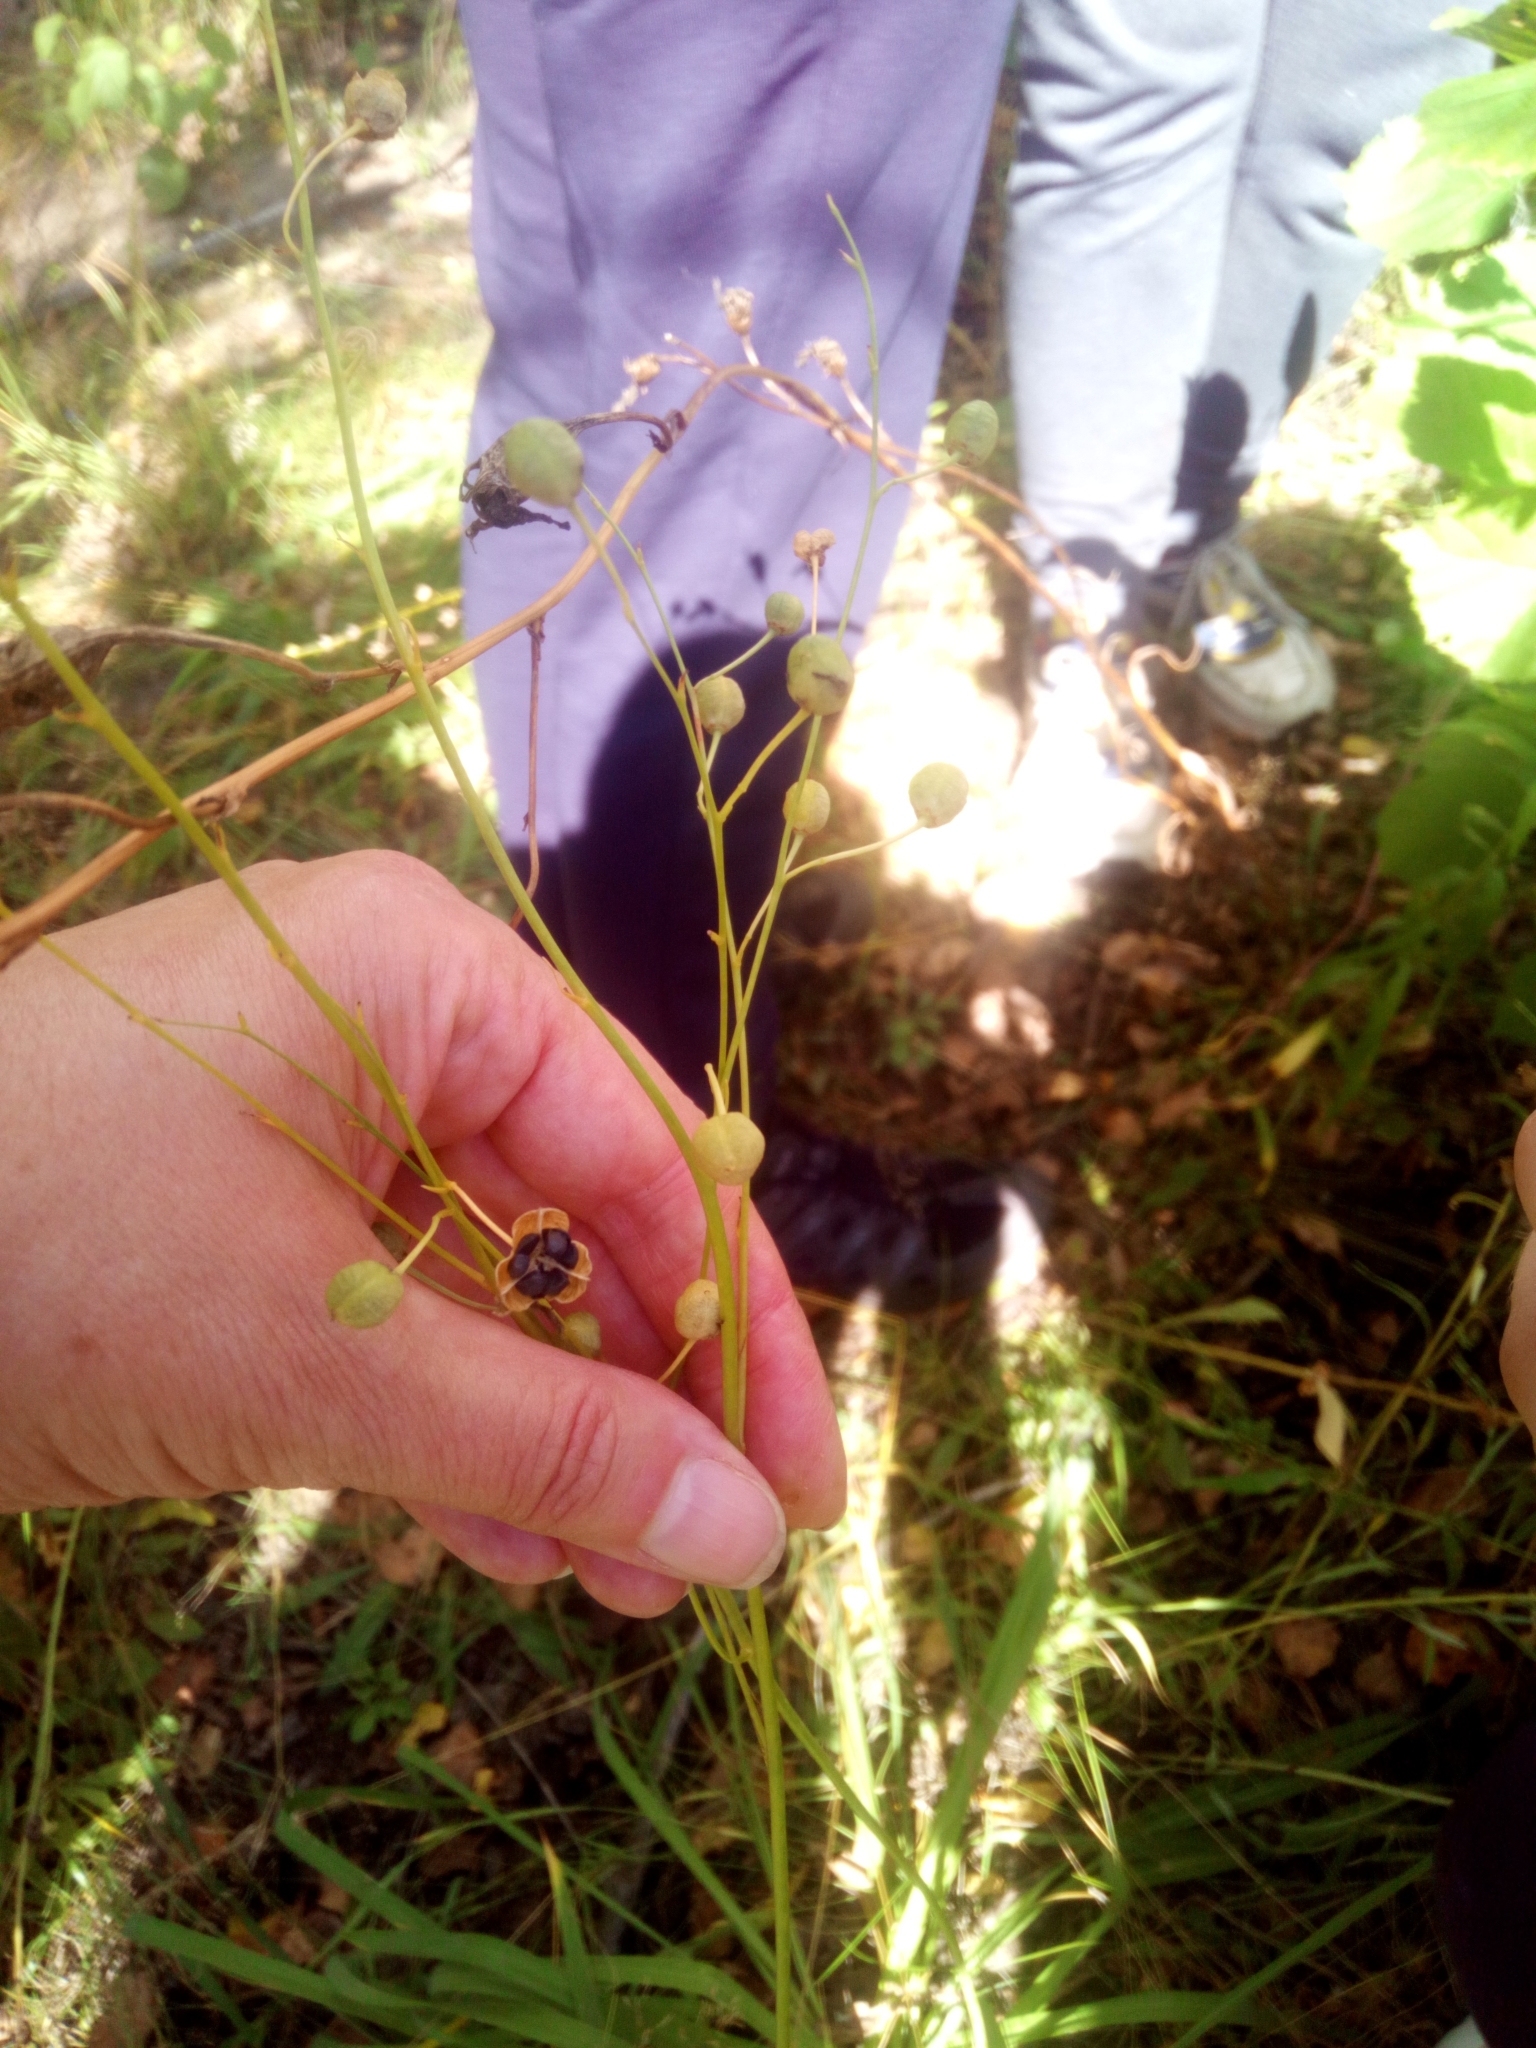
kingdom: Plantae
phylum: Tracheophyta
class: Liliopsida
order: Asparagales
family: Asparagaceae
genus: Anthericum
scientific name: Anthericum ramosum
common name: Branched st. bernard's-lily
